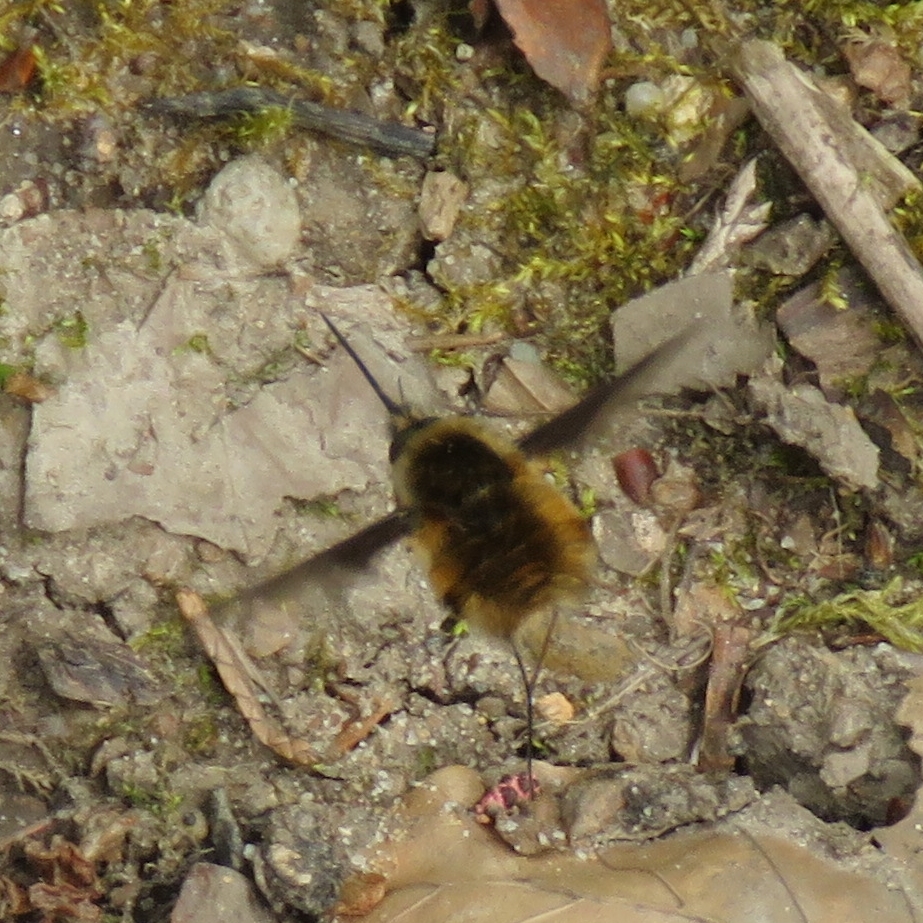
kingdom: Animalia
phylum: Arthropoda
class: Insecta
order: Diptera
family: Bombyliidae
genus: Bombylius
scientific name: Bombylius major
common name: Bee fly
